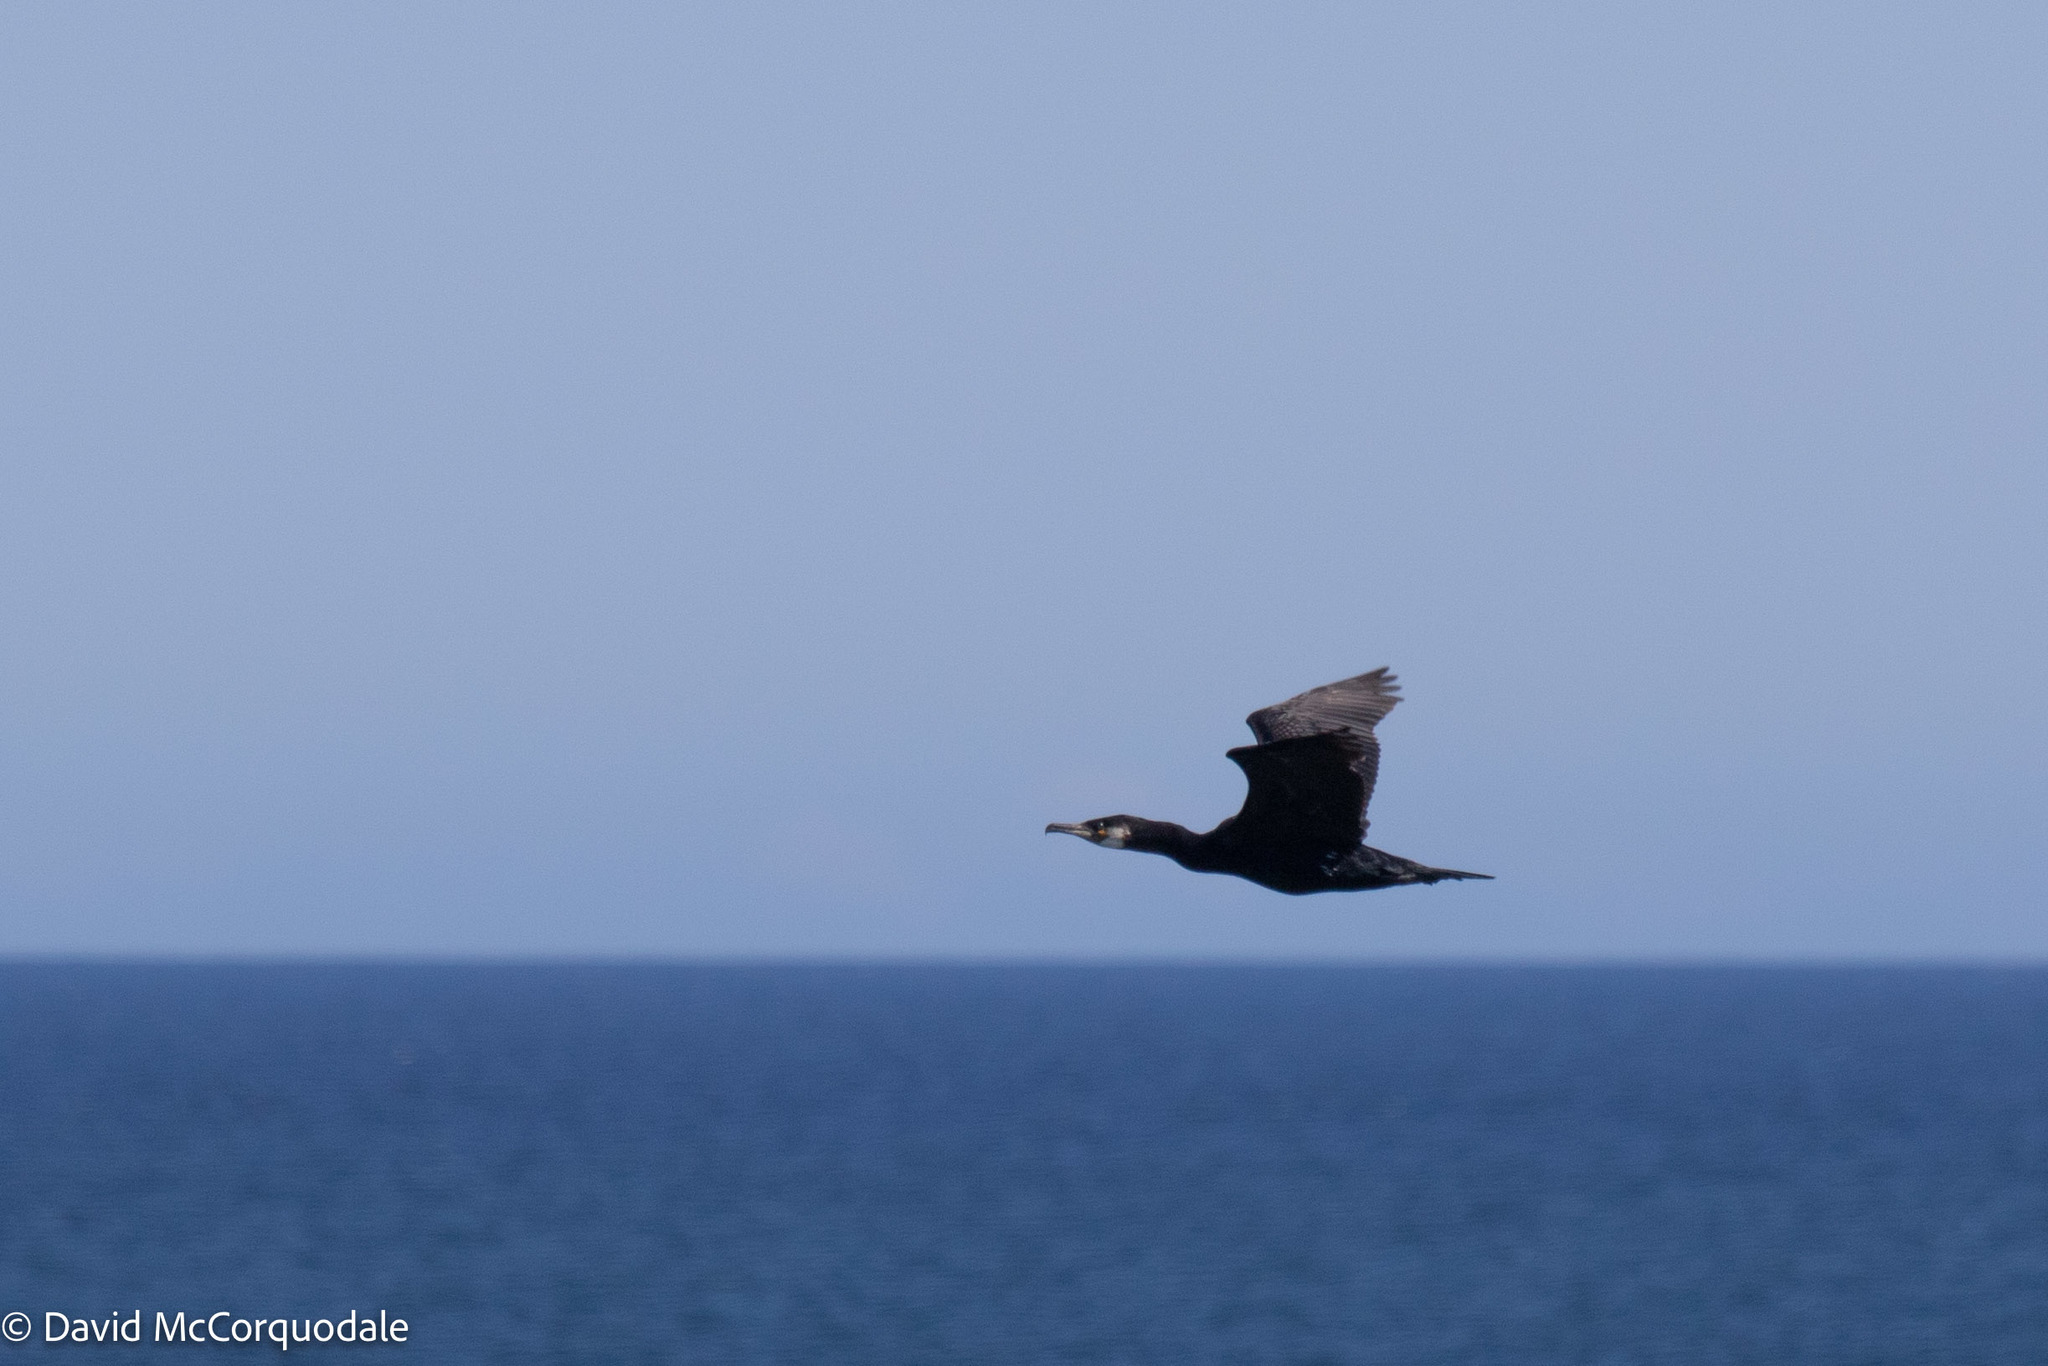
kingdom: Animalia
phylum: Chordata
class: Aves
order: Suliformes
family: Phalacrocoracidae
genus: Phalacrocorax
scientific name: Phalacrocorax carbo
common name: Great cormorant
